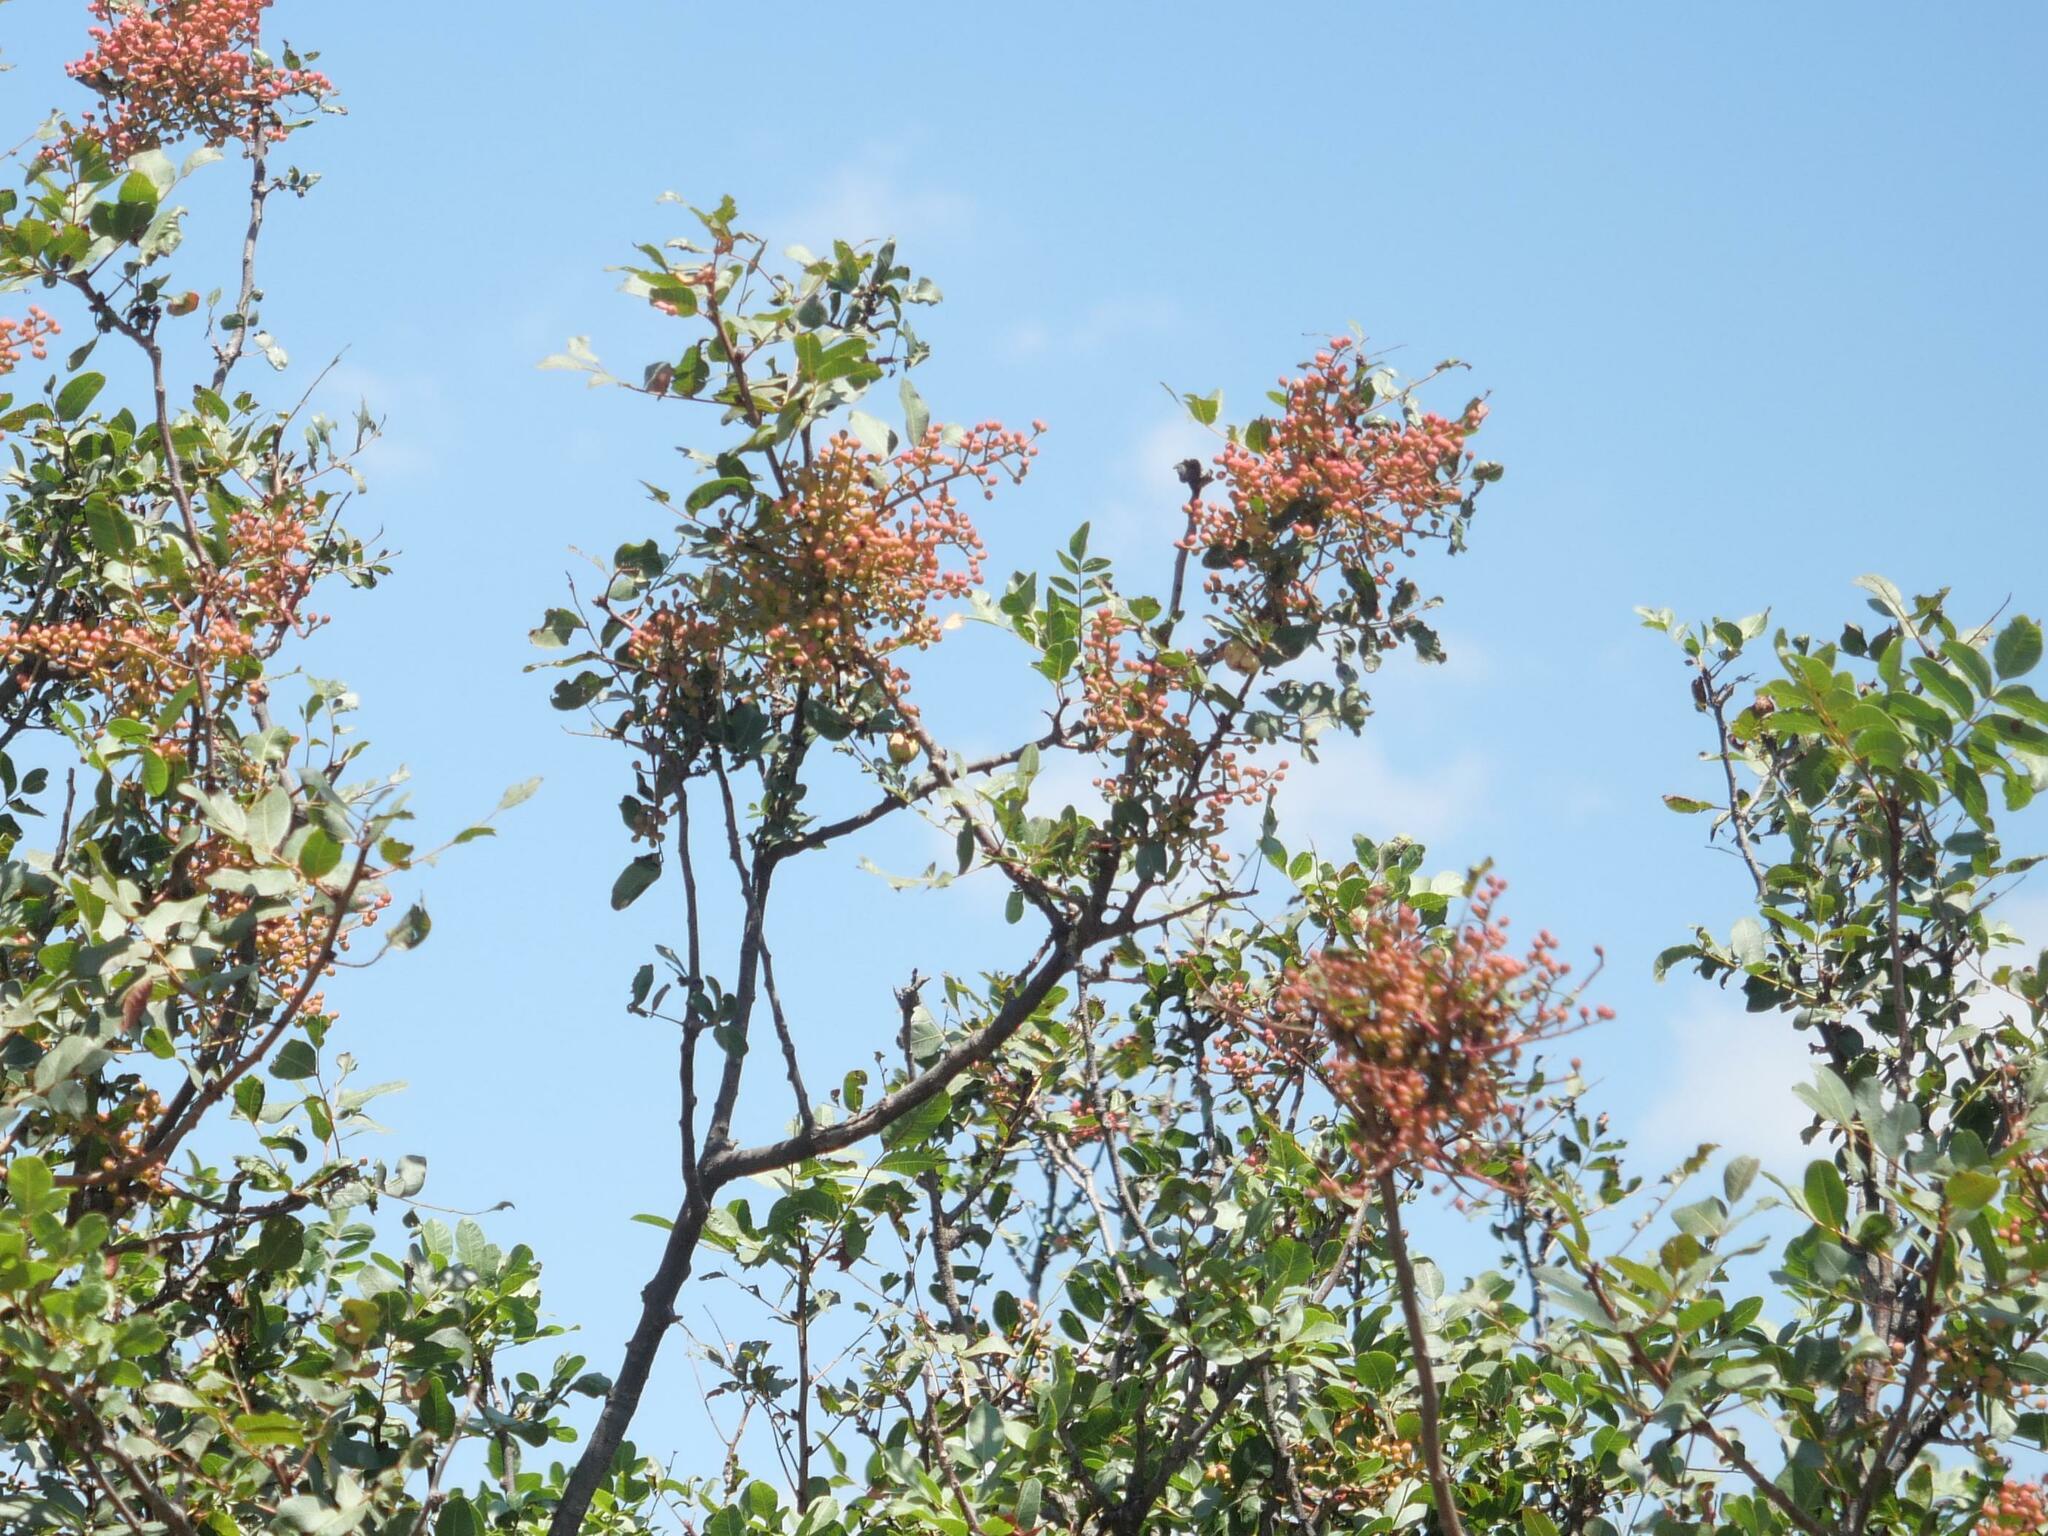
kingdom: Plantae
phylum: Tracheophyta
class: Magnoliopsida
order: Sapindales
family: Anacardiaceae
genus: Pistacia
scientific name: Pistacia terebinthus
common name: Terebinth
